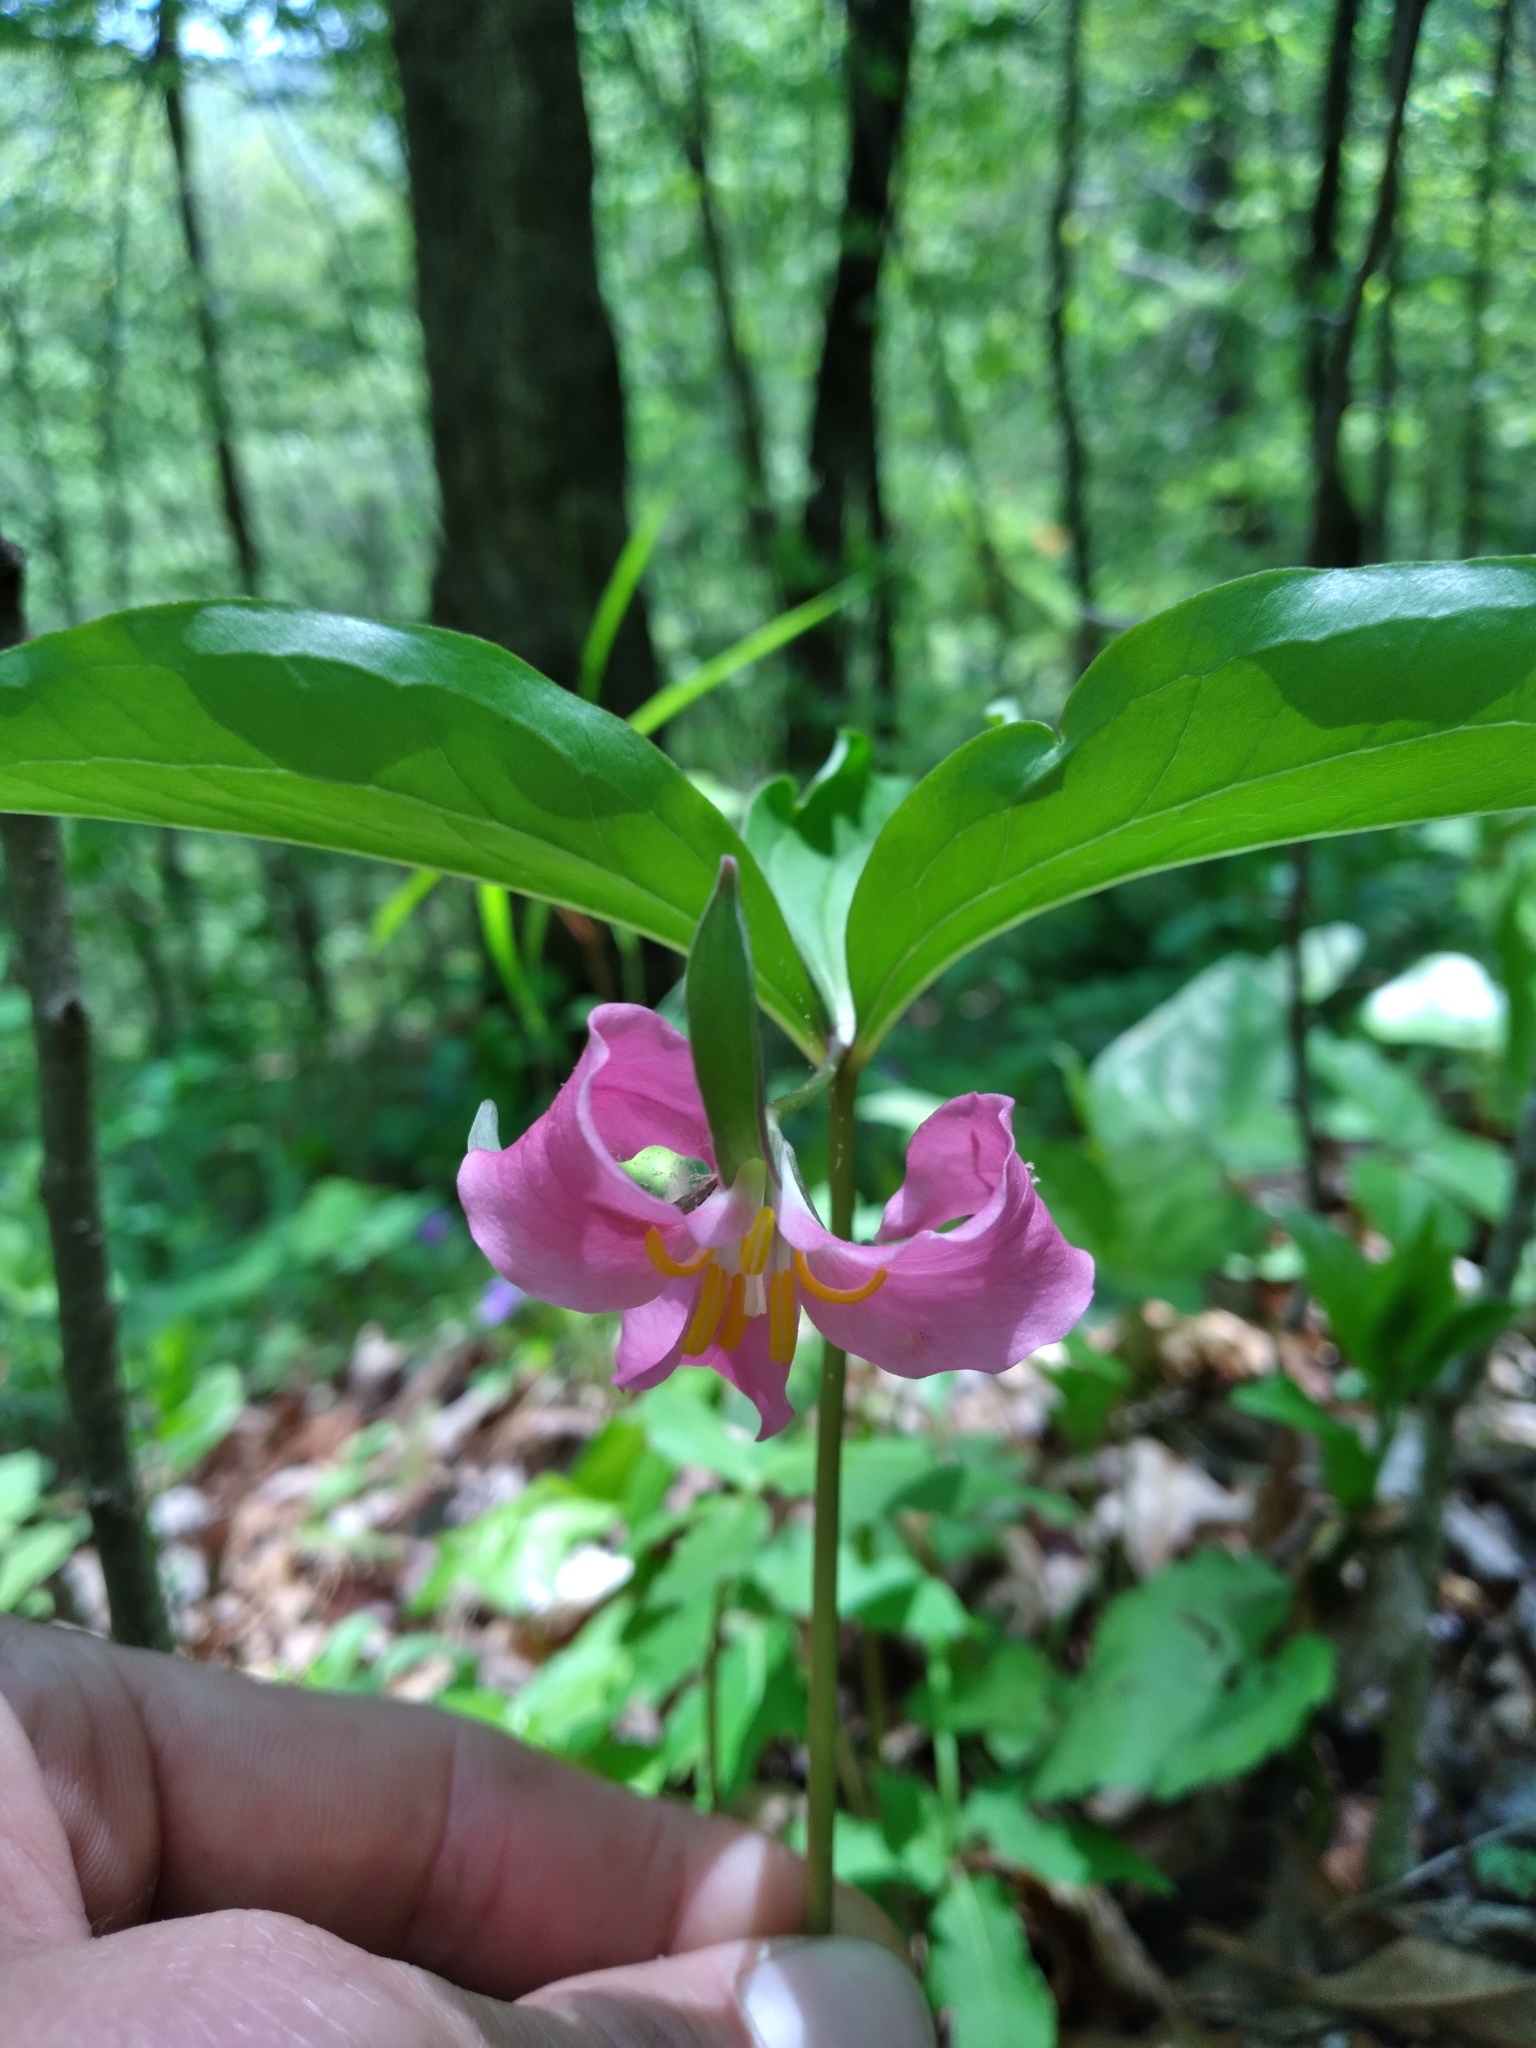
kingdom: Plantae
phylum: Tracheophyta
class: Liliopsida
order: Liliales
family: Melanthiaceae
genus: Trillium
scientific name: Trillium catesbaei
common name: Bashful trillium
